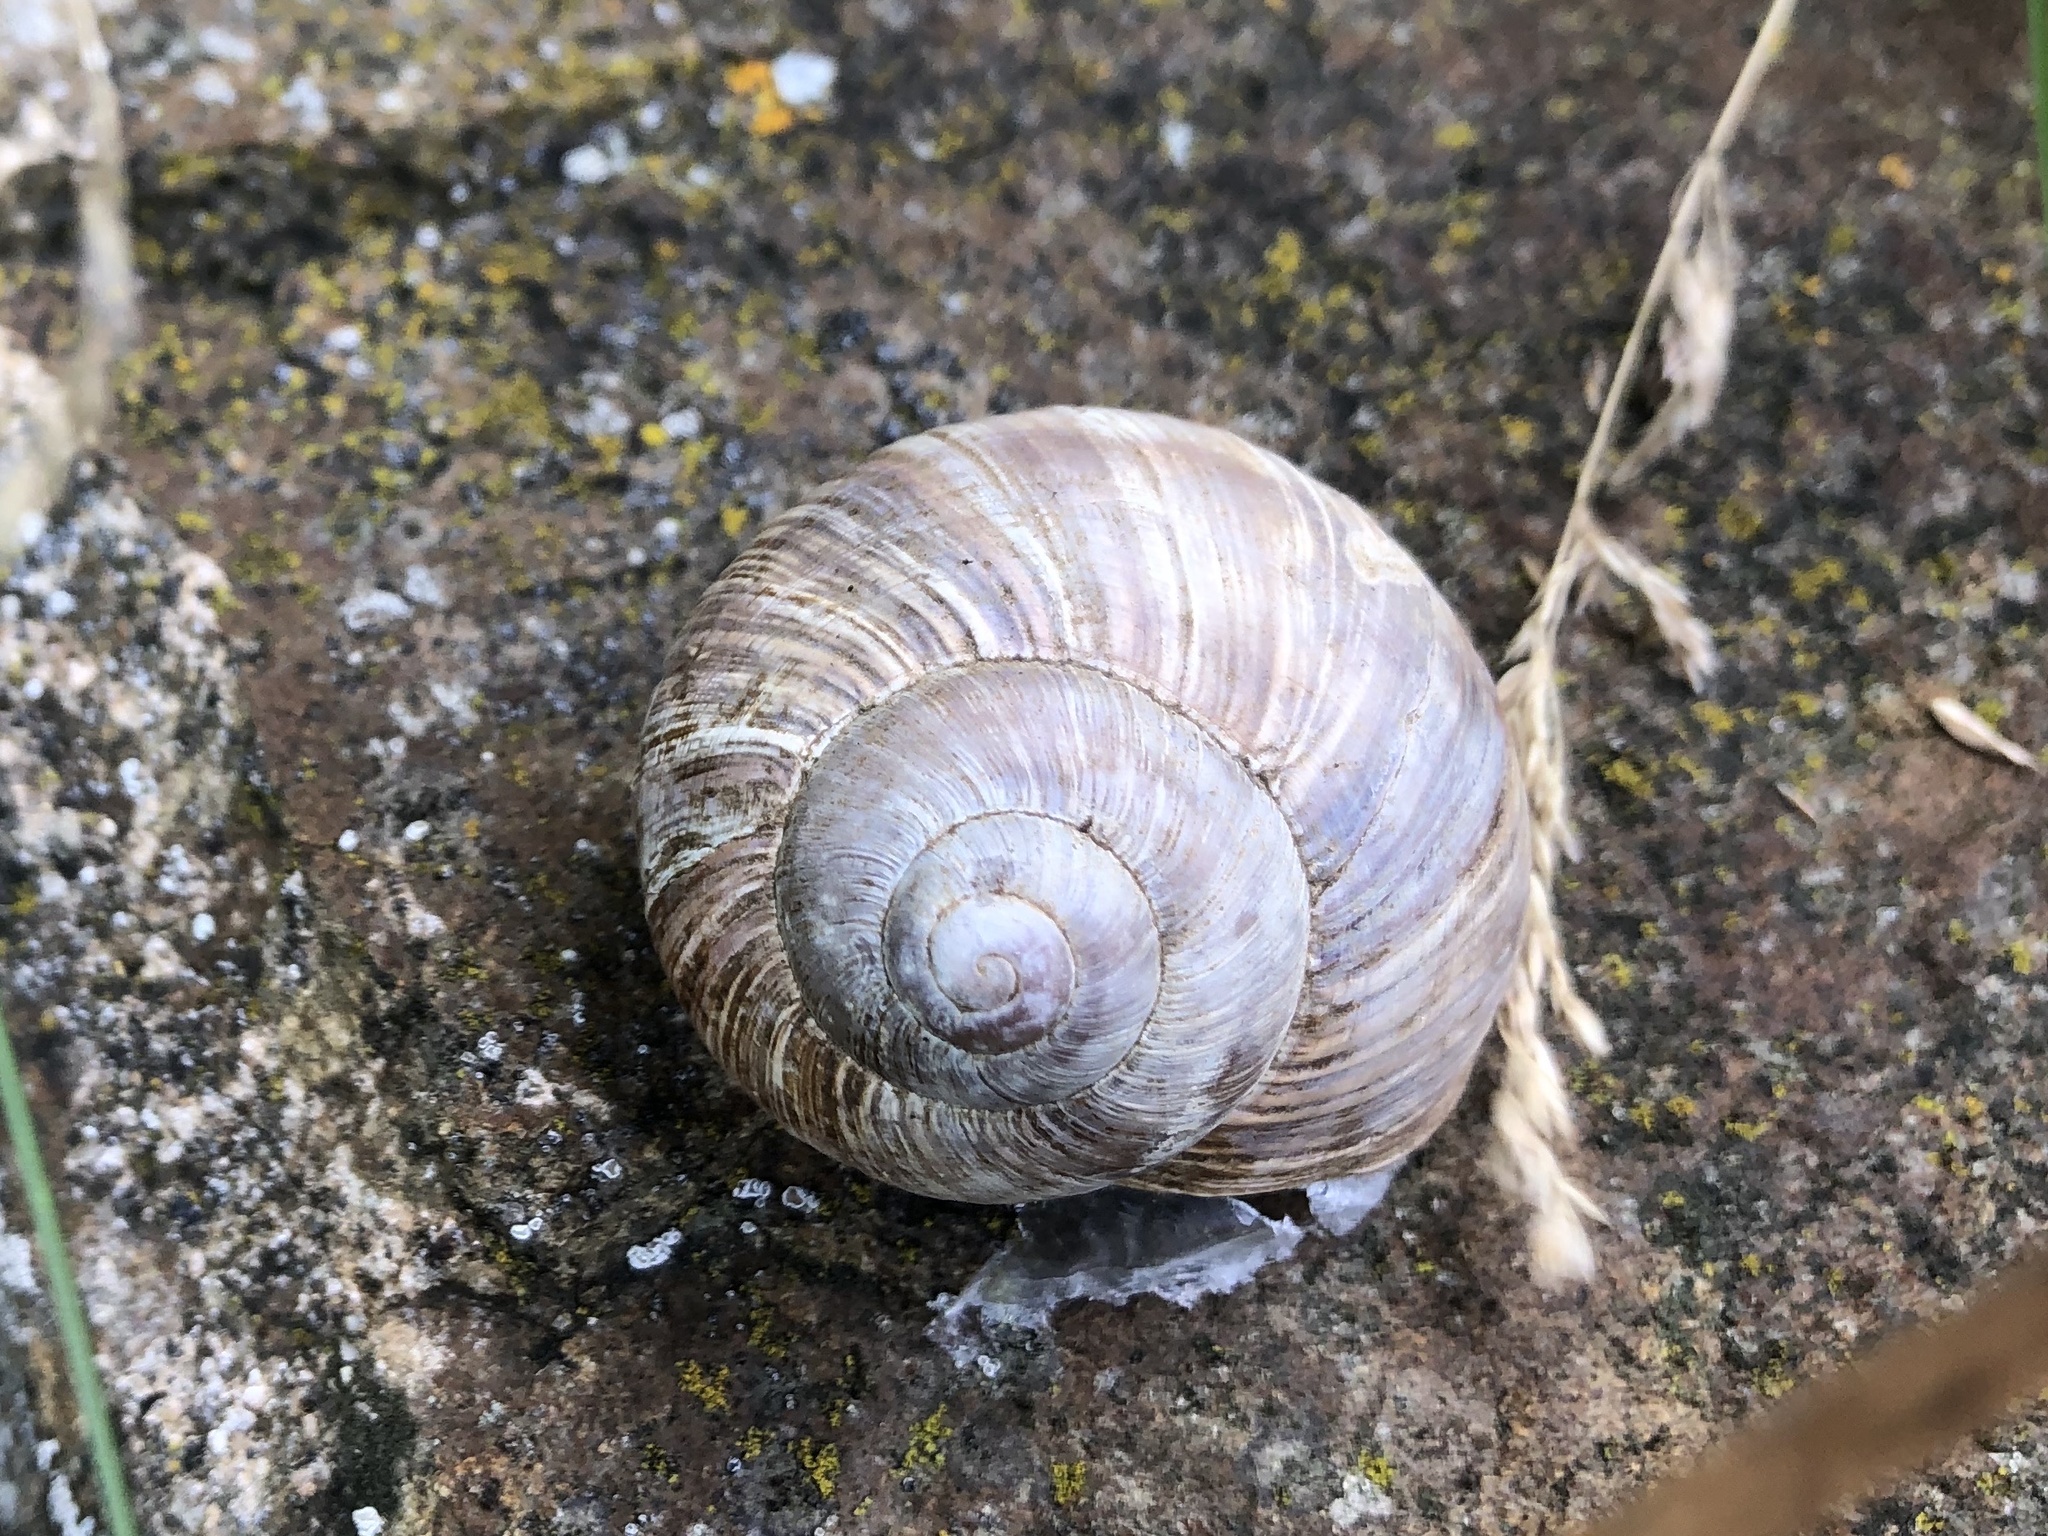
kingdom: Animalia
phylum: Mollusca
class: Gastropoda
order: Stylommatophora
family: Helicidae
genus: Helix
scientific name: Helix pomatia
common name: Roman snail
